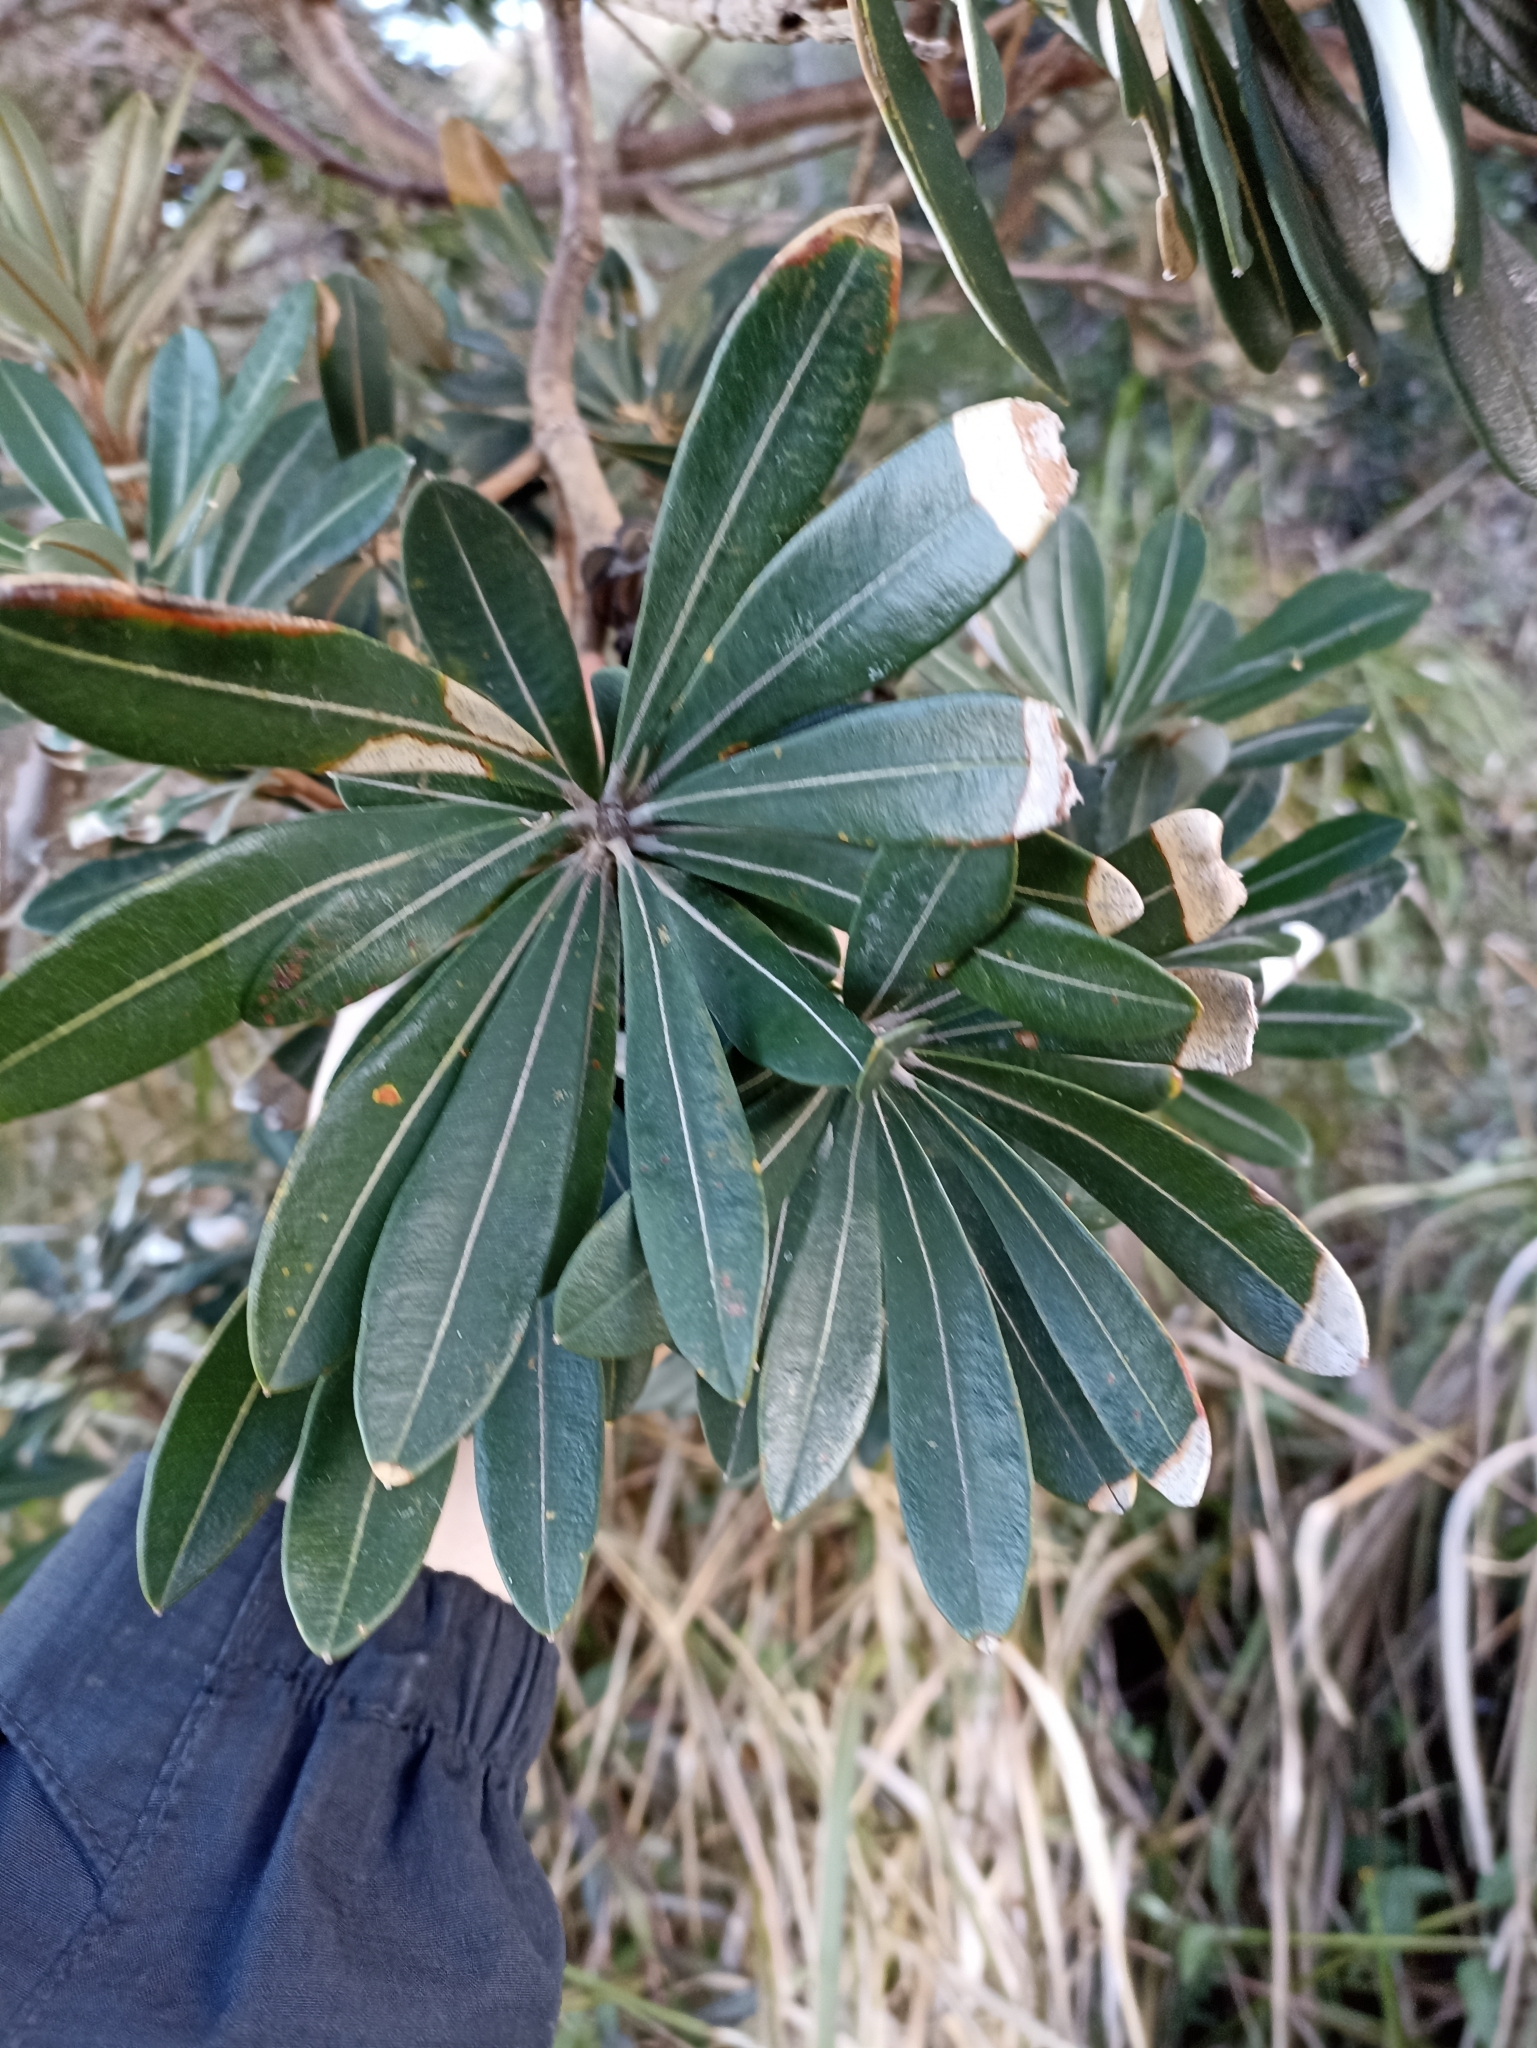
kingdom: Plantae
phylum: Tracheophyta
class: Magnoliopsida
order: Proteales
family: Proteaceae
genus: Banksia
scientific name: Banksia integrifolia
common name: White-honeysuckle
